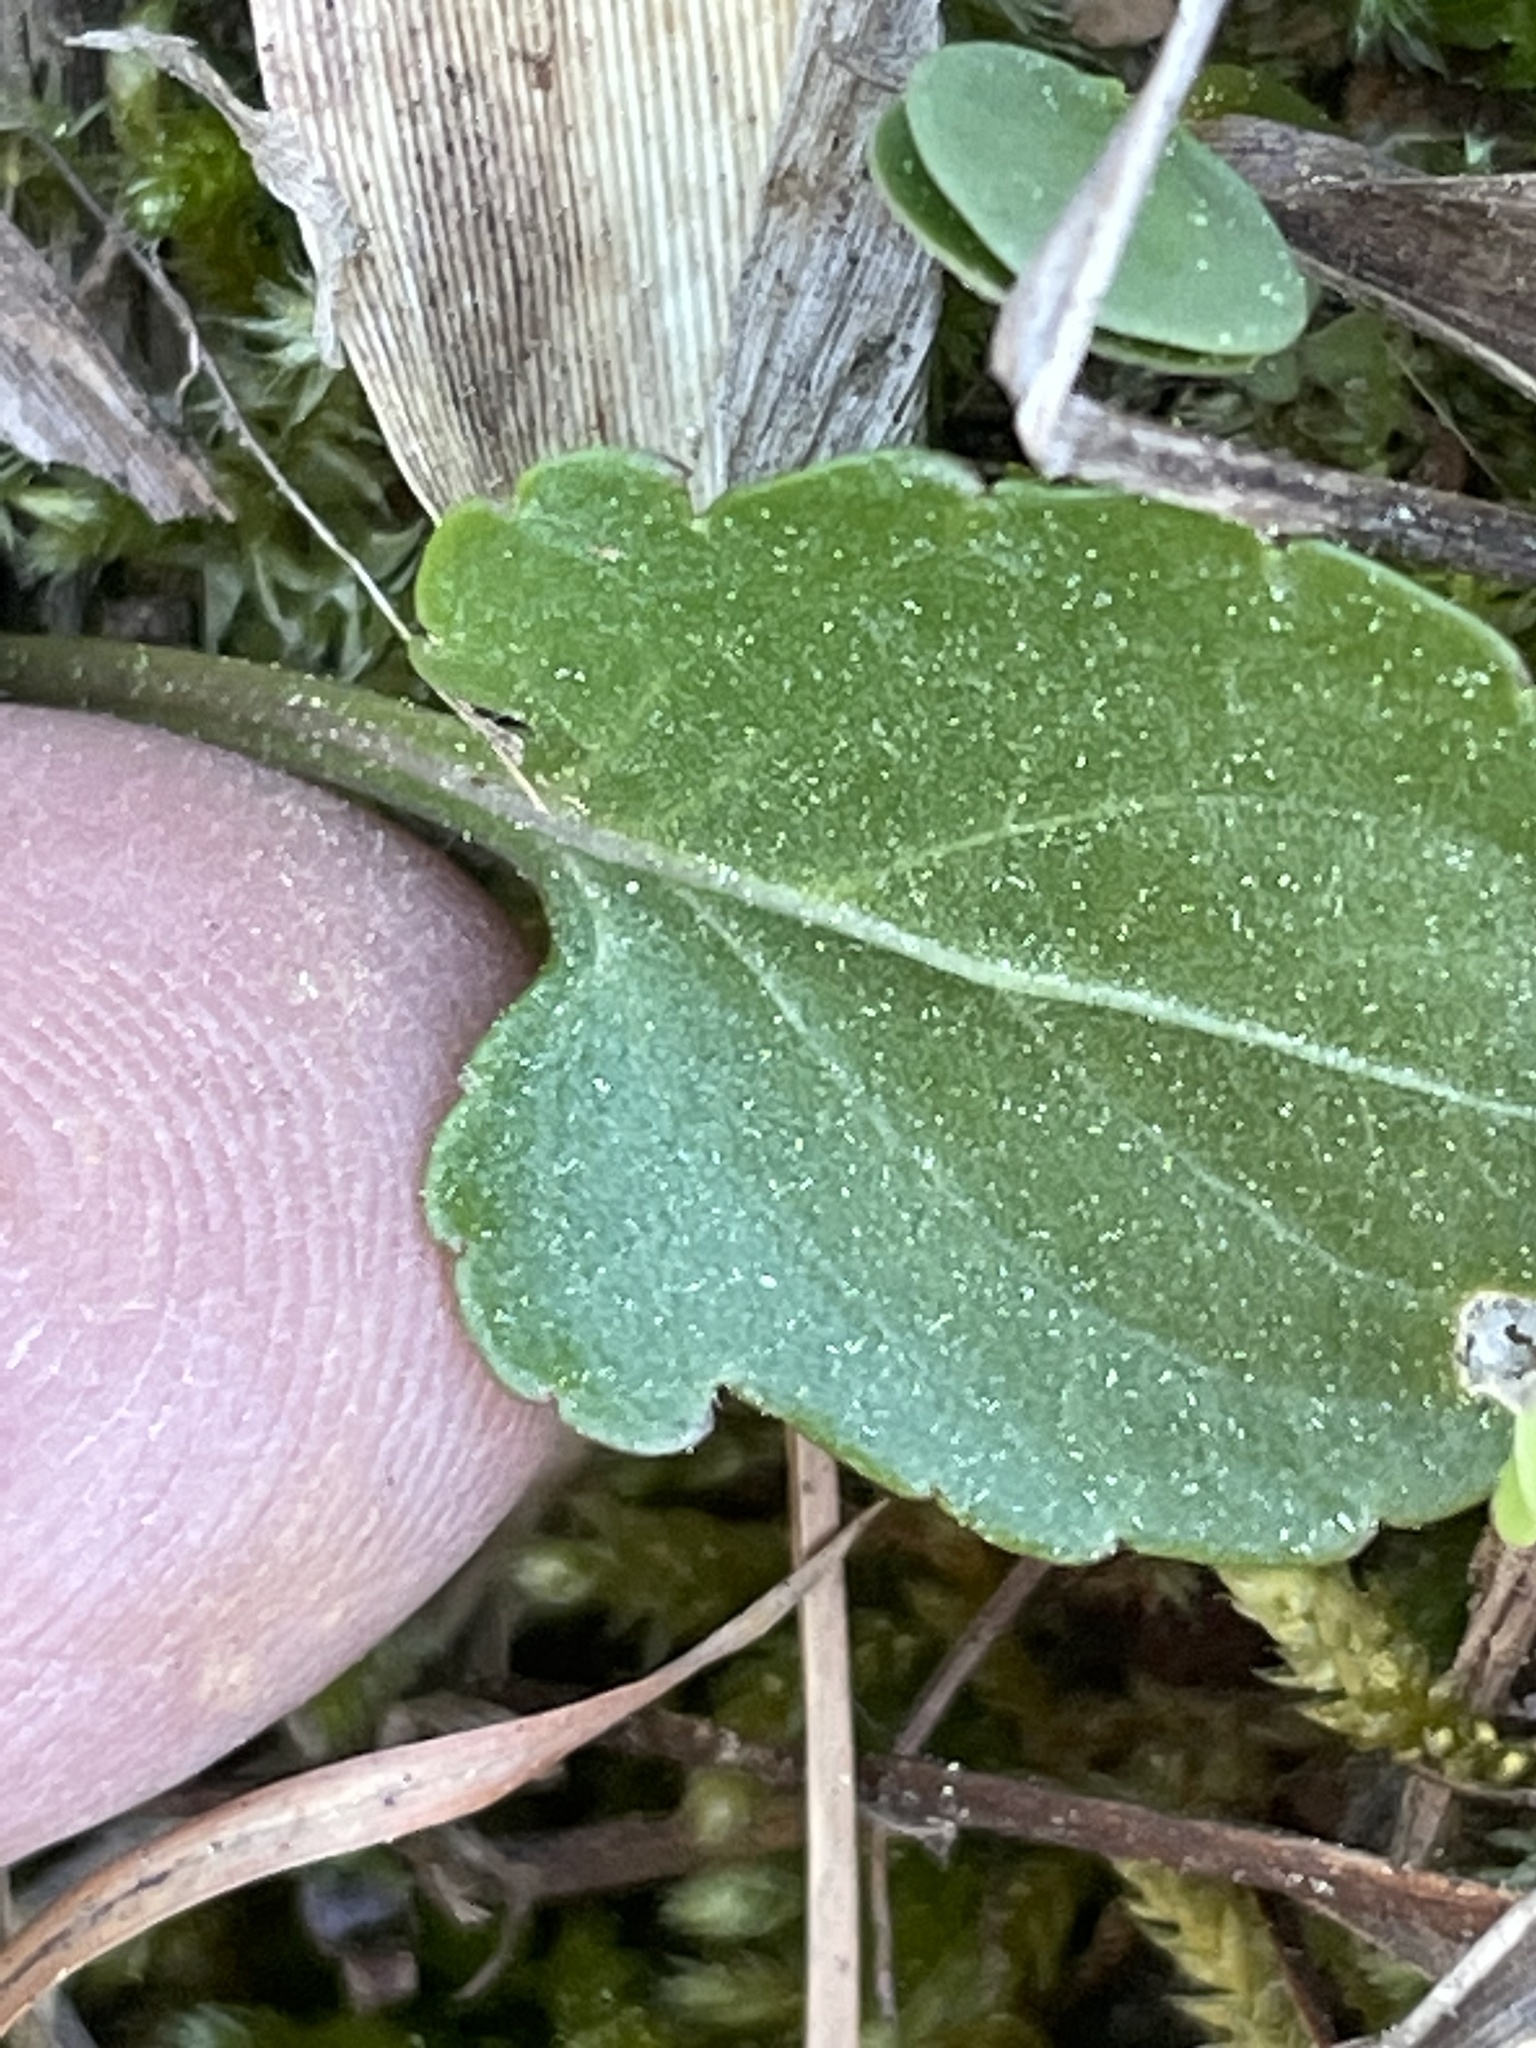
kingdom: Plantae
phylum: Tracheophyta
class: Magnoliopsida
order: Malpighiales
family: Violaceae
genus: Viola
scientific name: Viola emarginata
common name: Triangle-leaved violet
